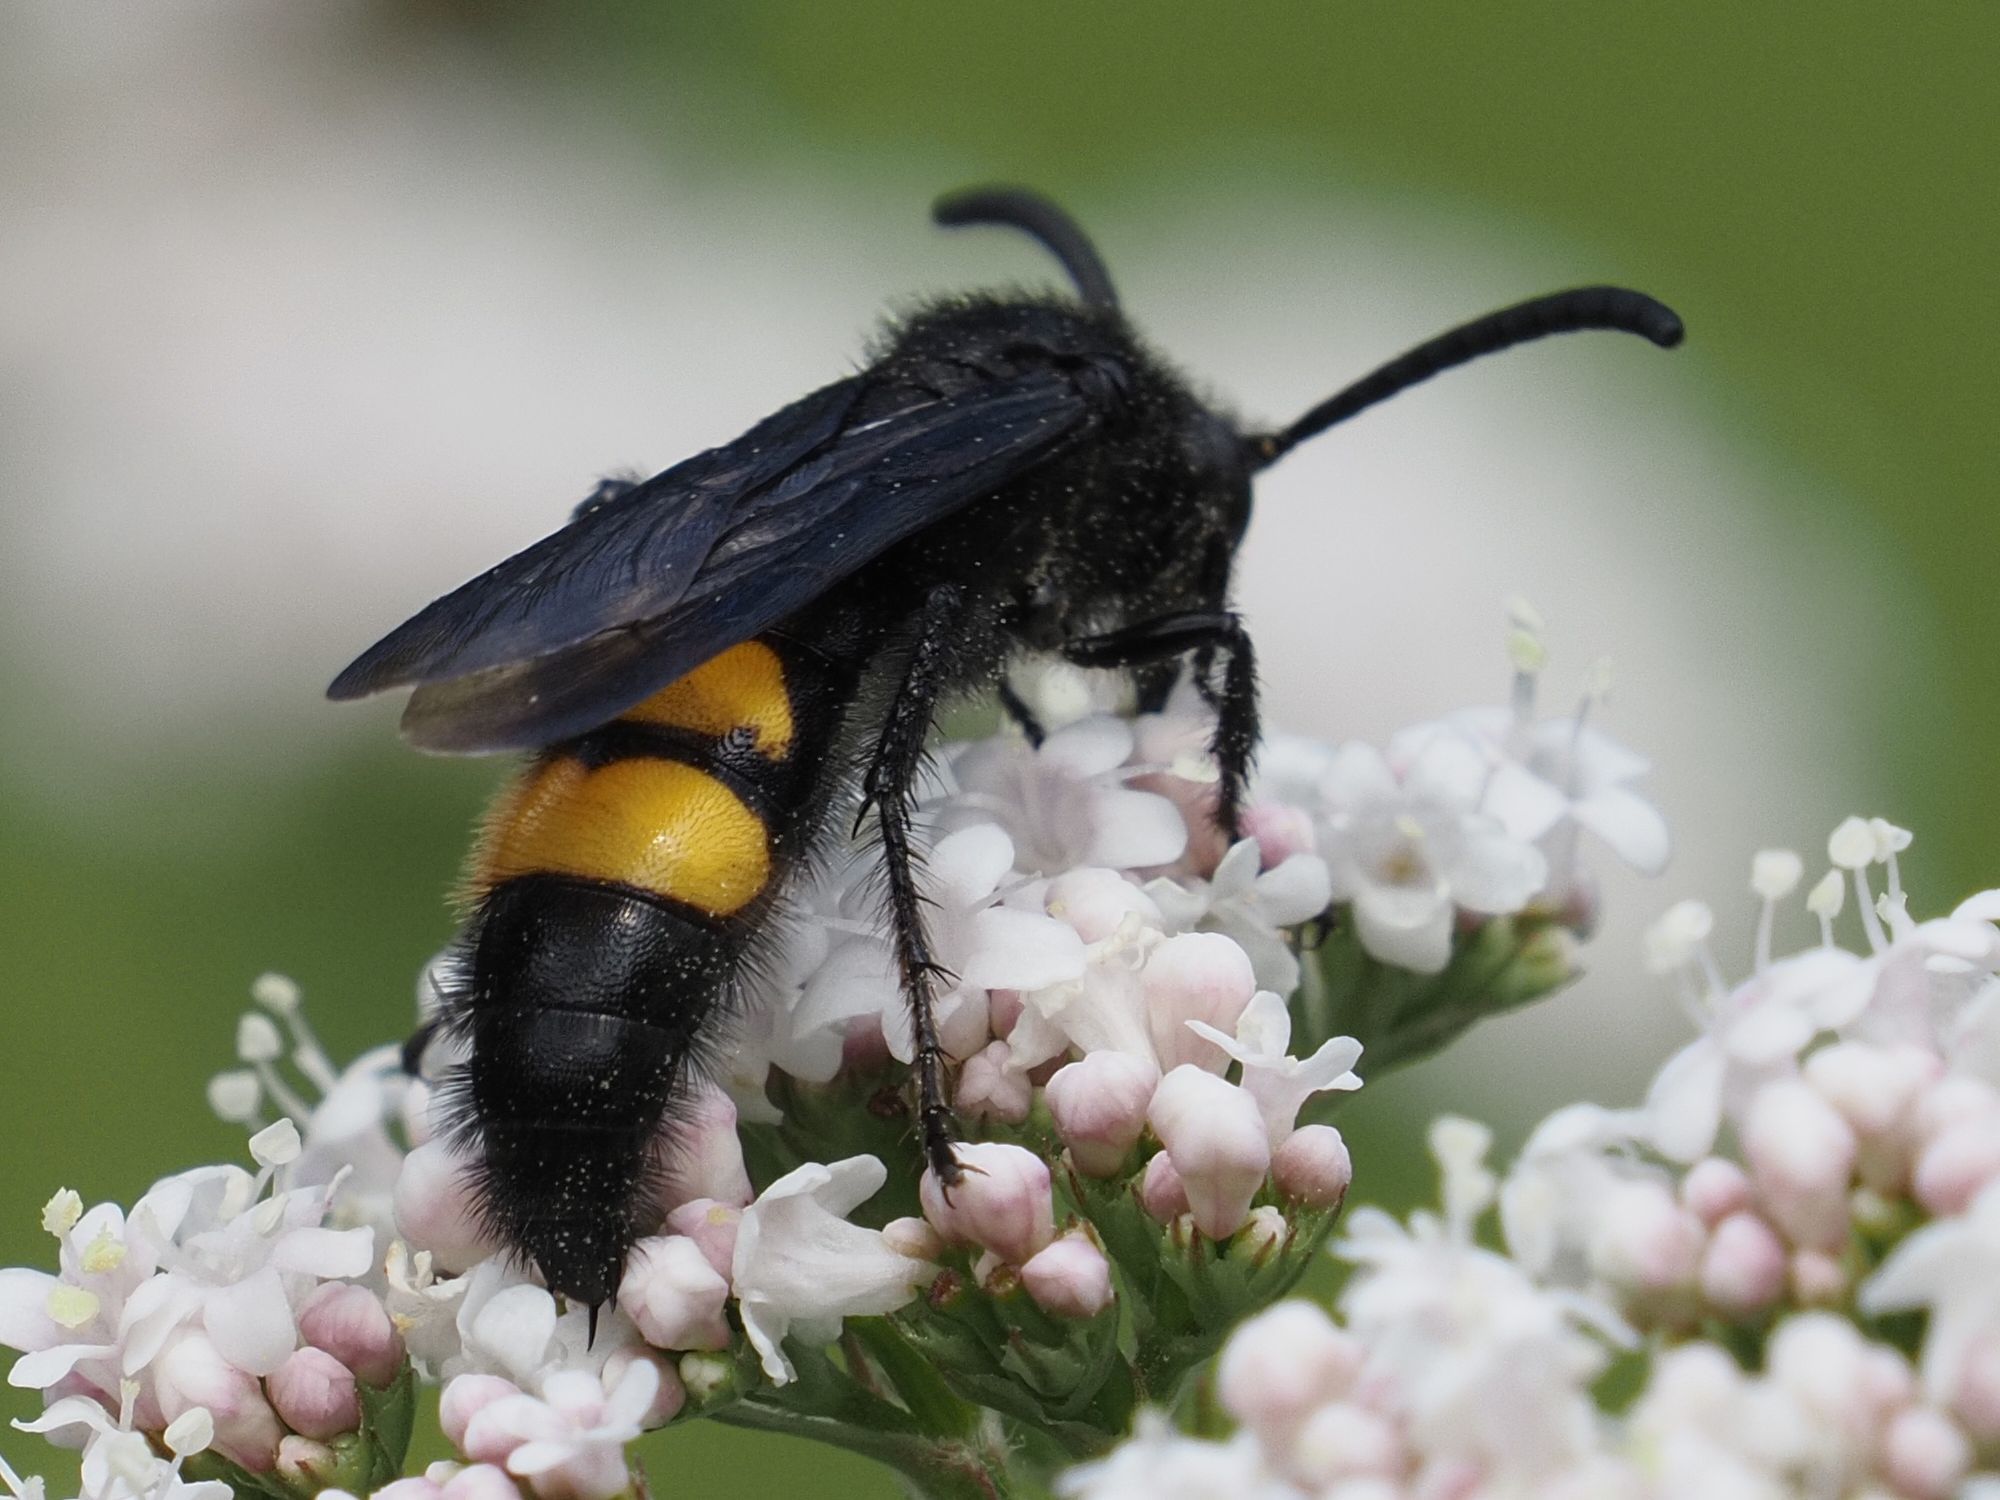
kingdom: Animalia
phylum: Arthropoda
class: Insecta
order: Hymenoptera
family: Scoliidae
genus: Scolia
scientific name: Scolia hirta
